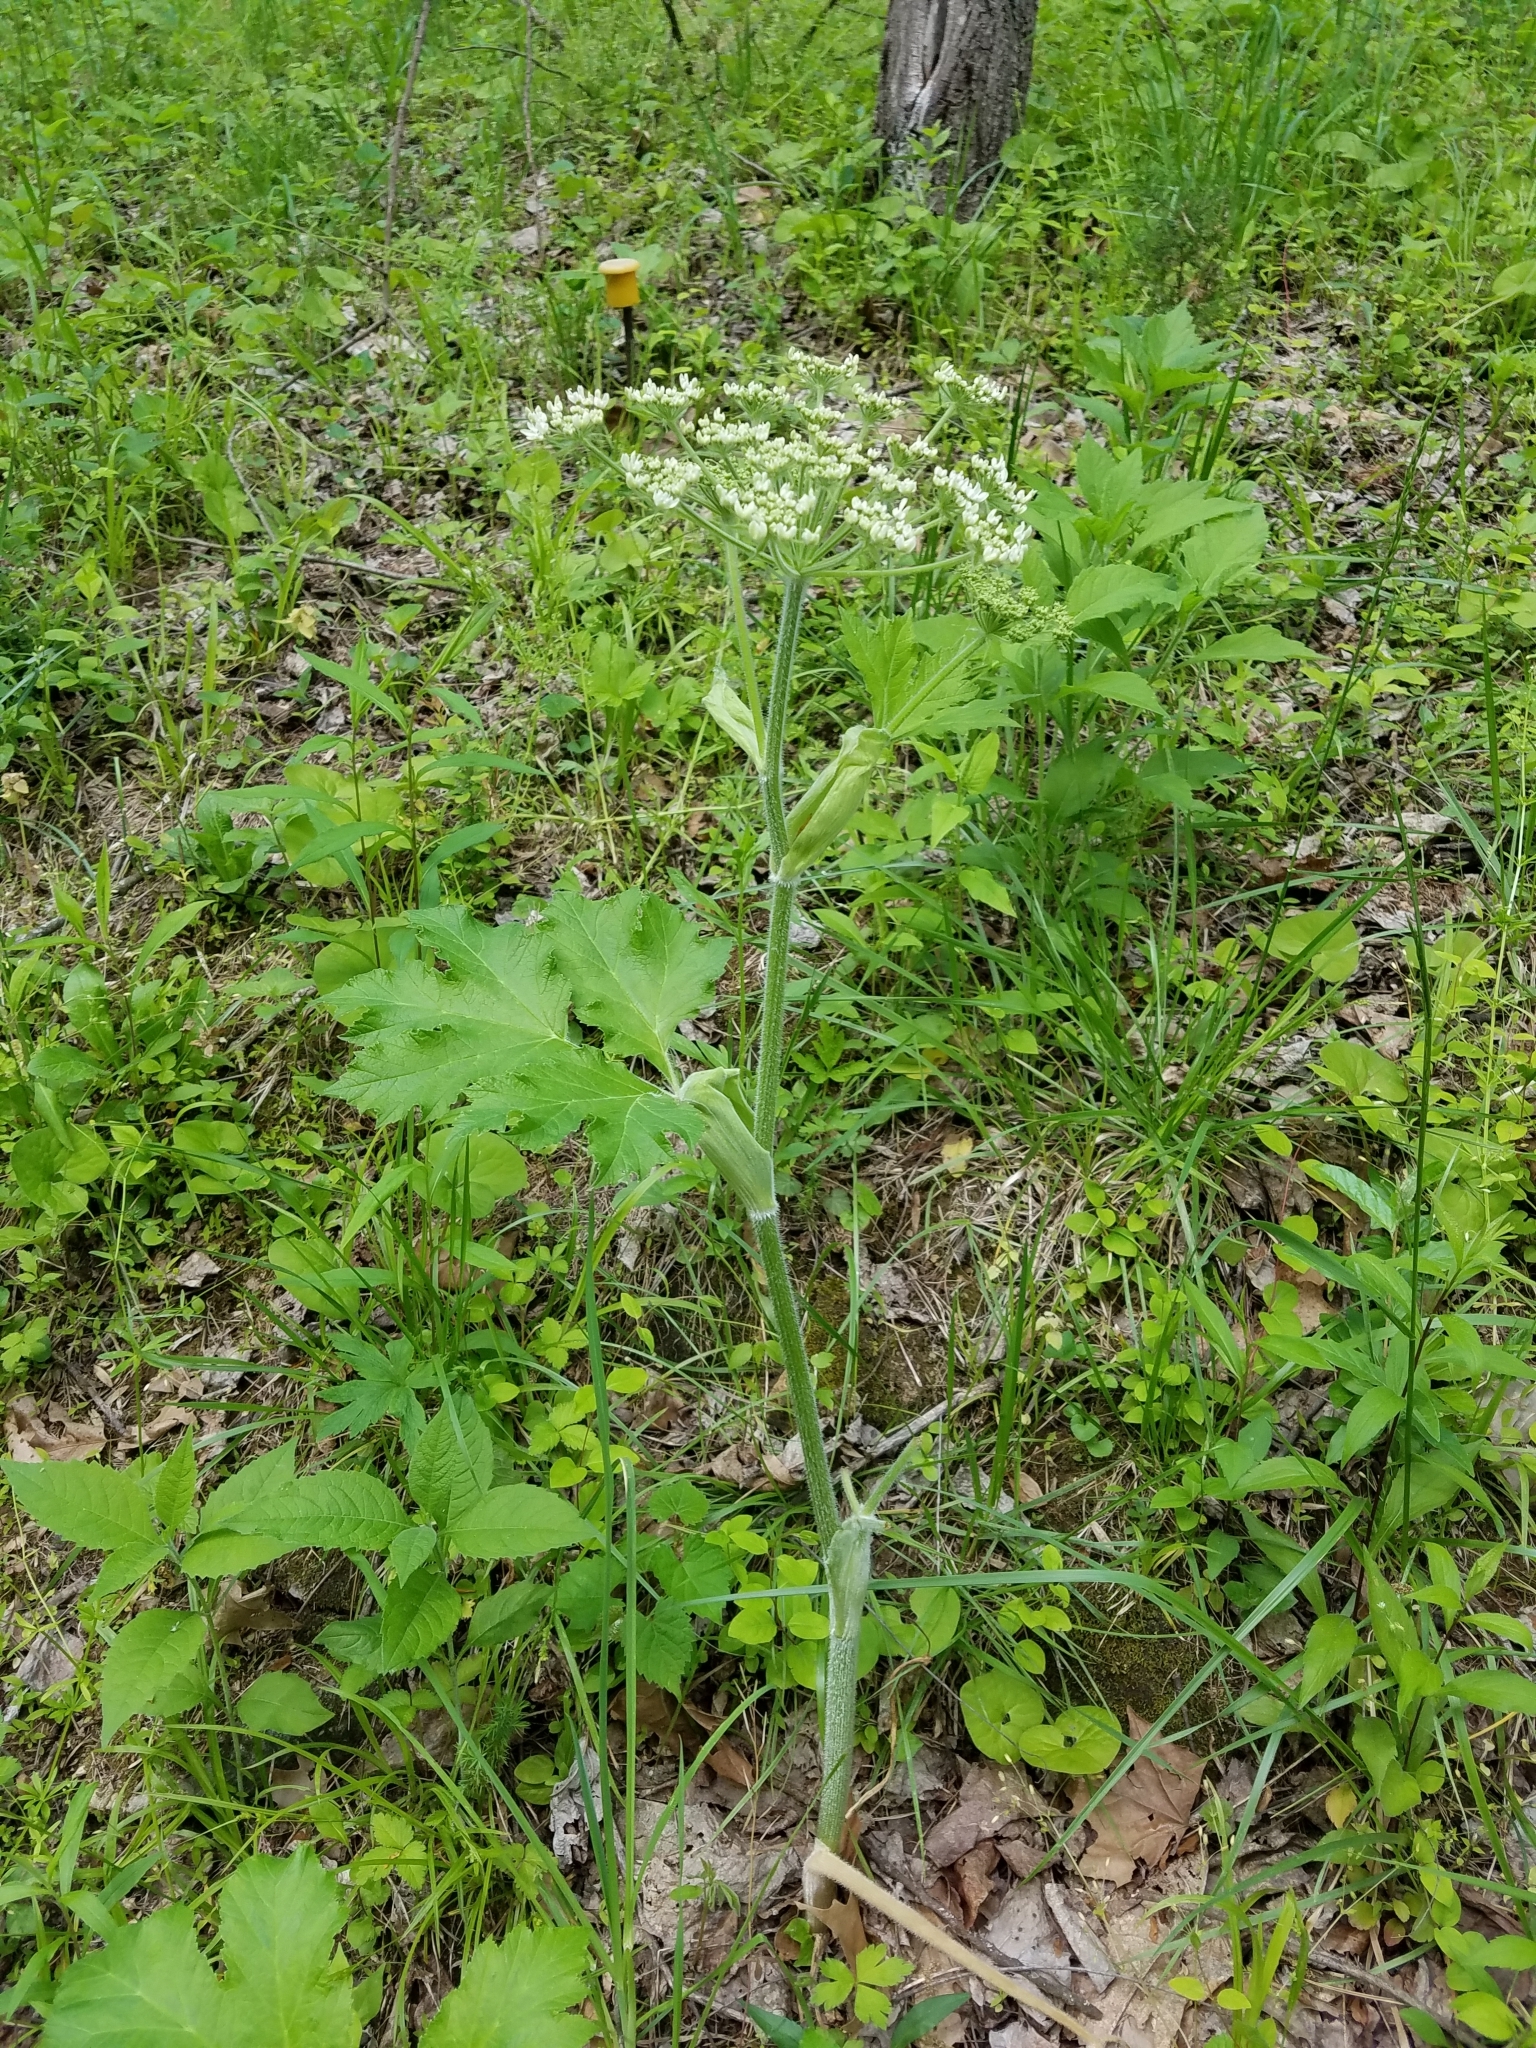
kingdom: Plantae
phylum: Tracheophyta
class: Magnoliopsida
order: Apiales
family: Apiaceae
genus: Heracleum
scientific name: Heracleum maximum
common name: American cow parsnip
